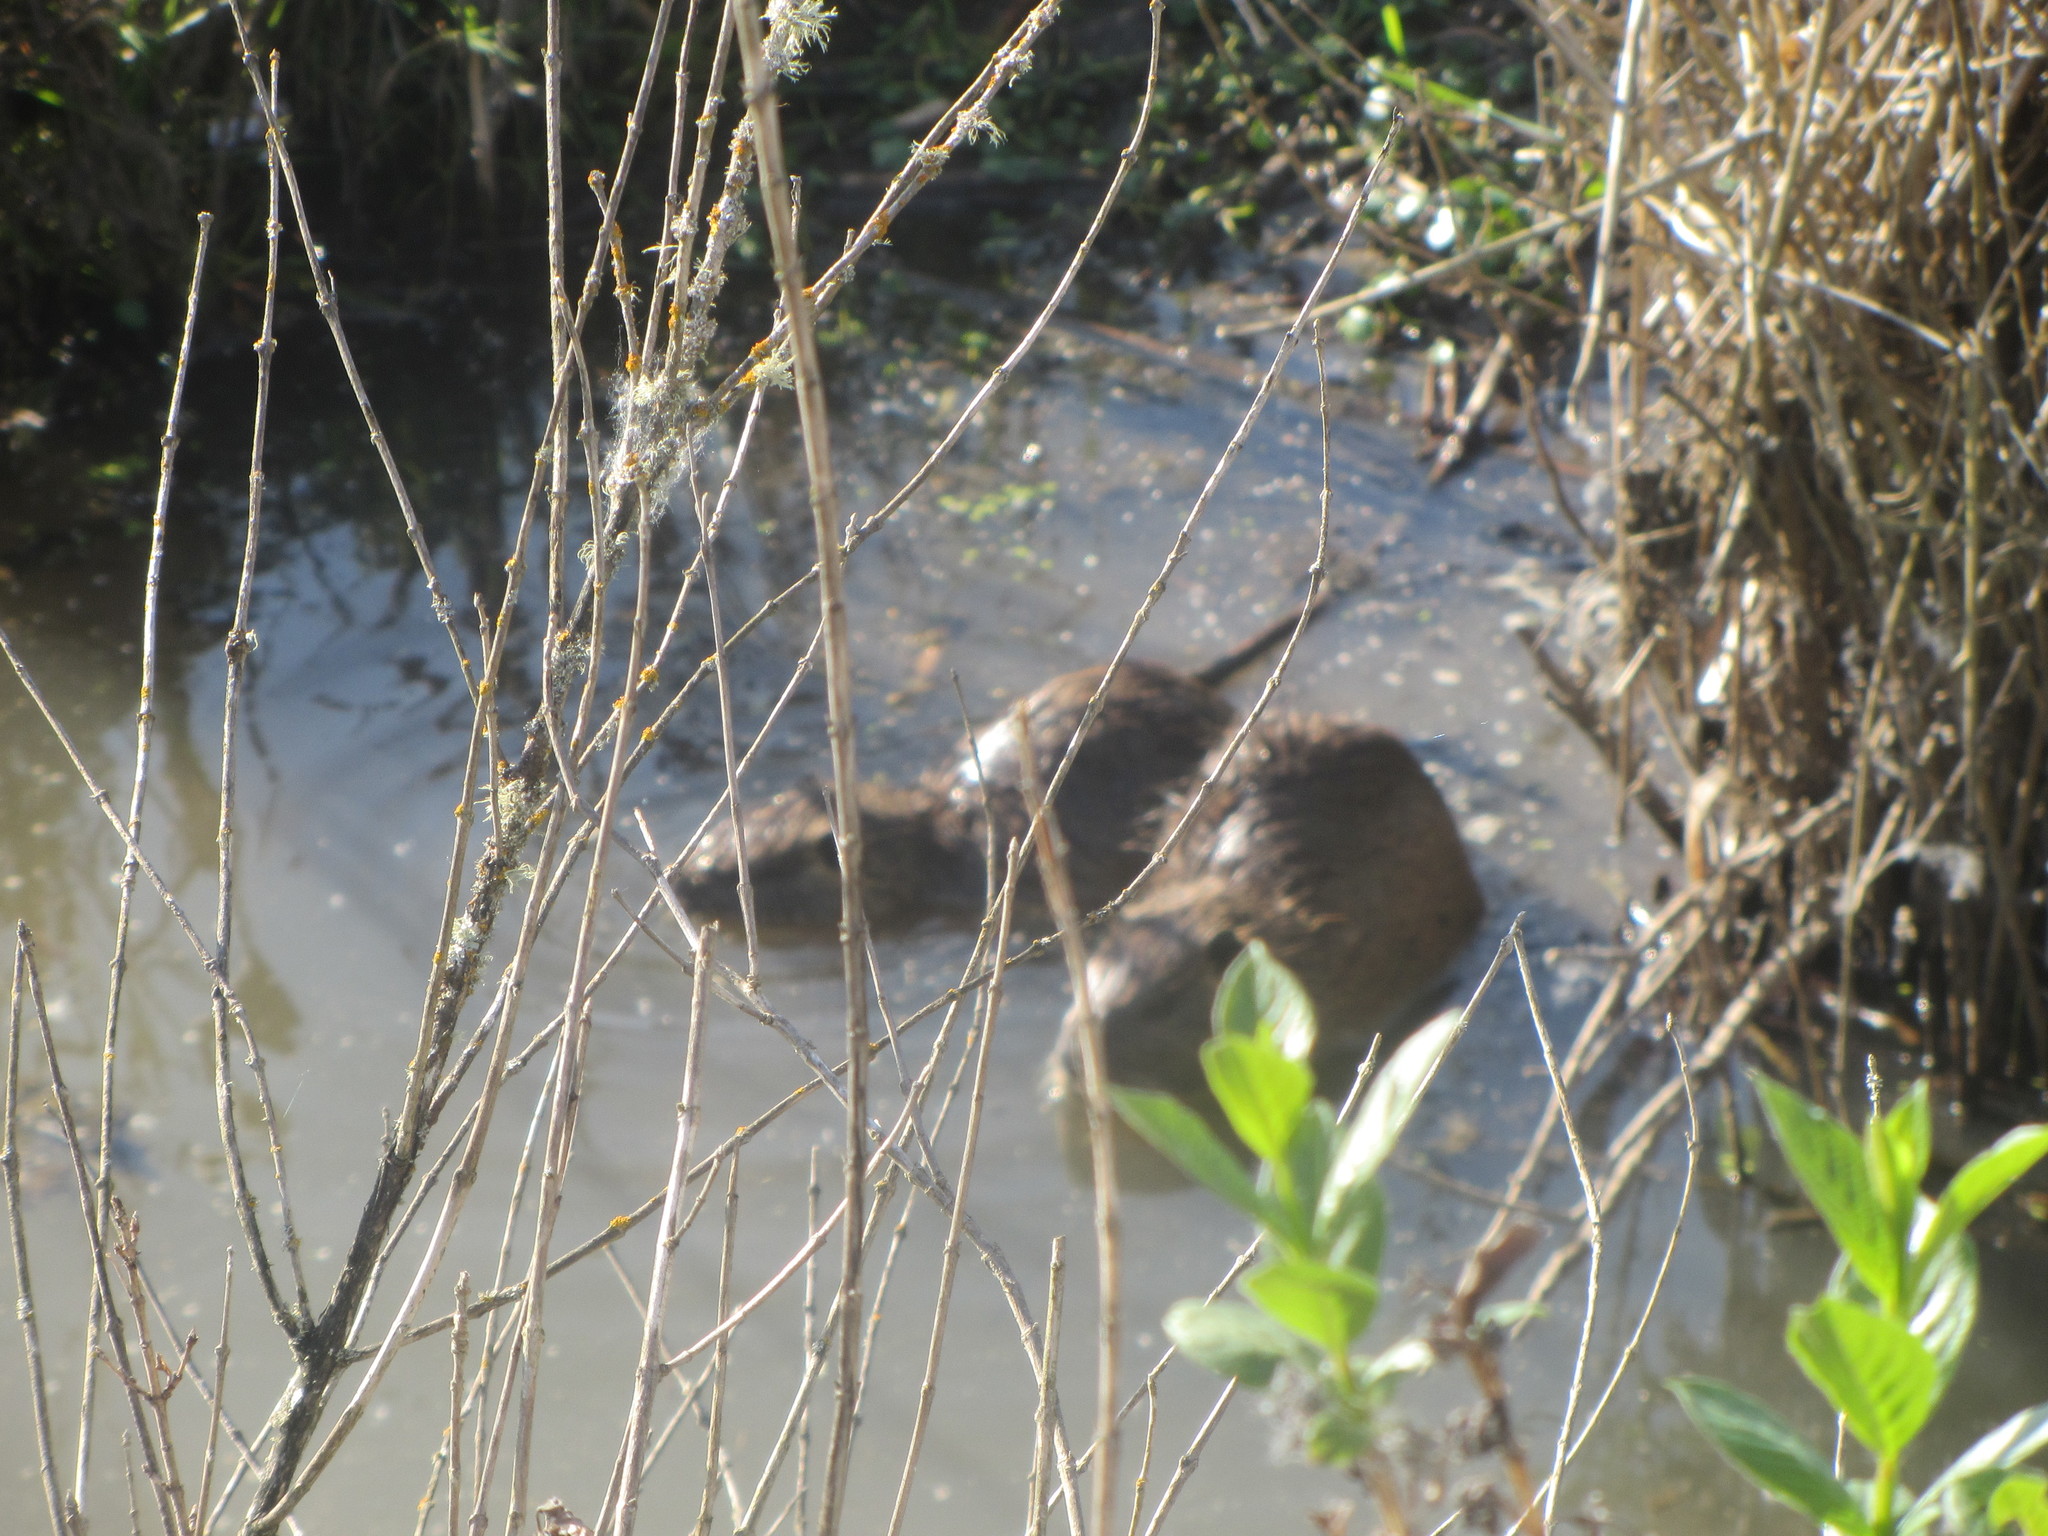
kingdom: Animalia
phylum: Chordata
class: Mammalia
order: Rodentia
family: Myocastoridae
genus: Myocastor
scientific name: Myocastor coypus
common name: Coypu
